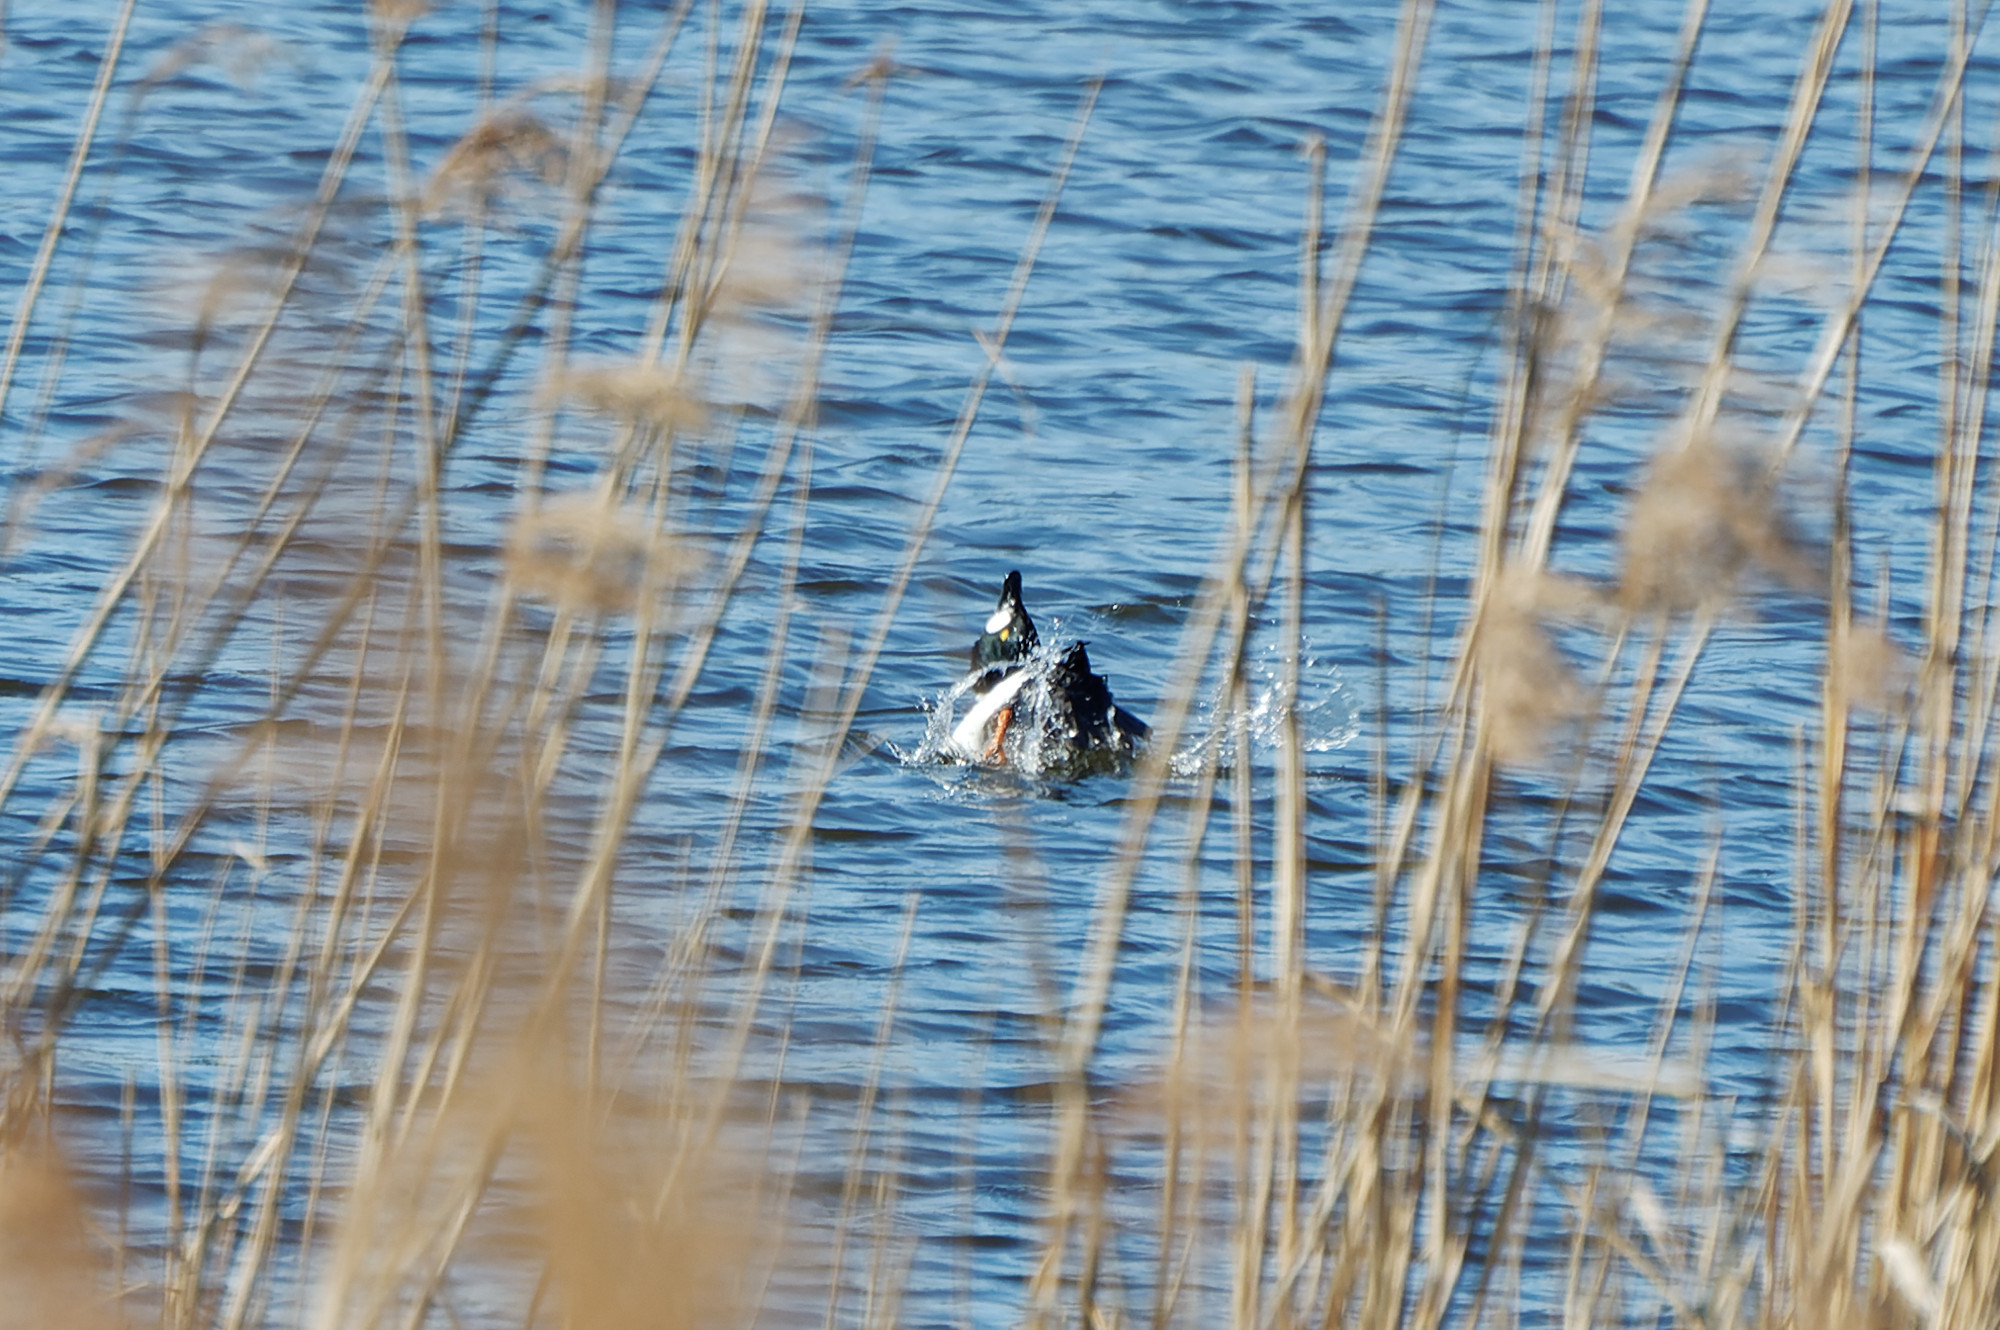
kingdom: Animalia
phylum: Chordata
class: Aves
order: Anseriformes
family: Anatidae
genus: Bucephala
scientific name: Bucephala clangula
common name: Common goldeneye
